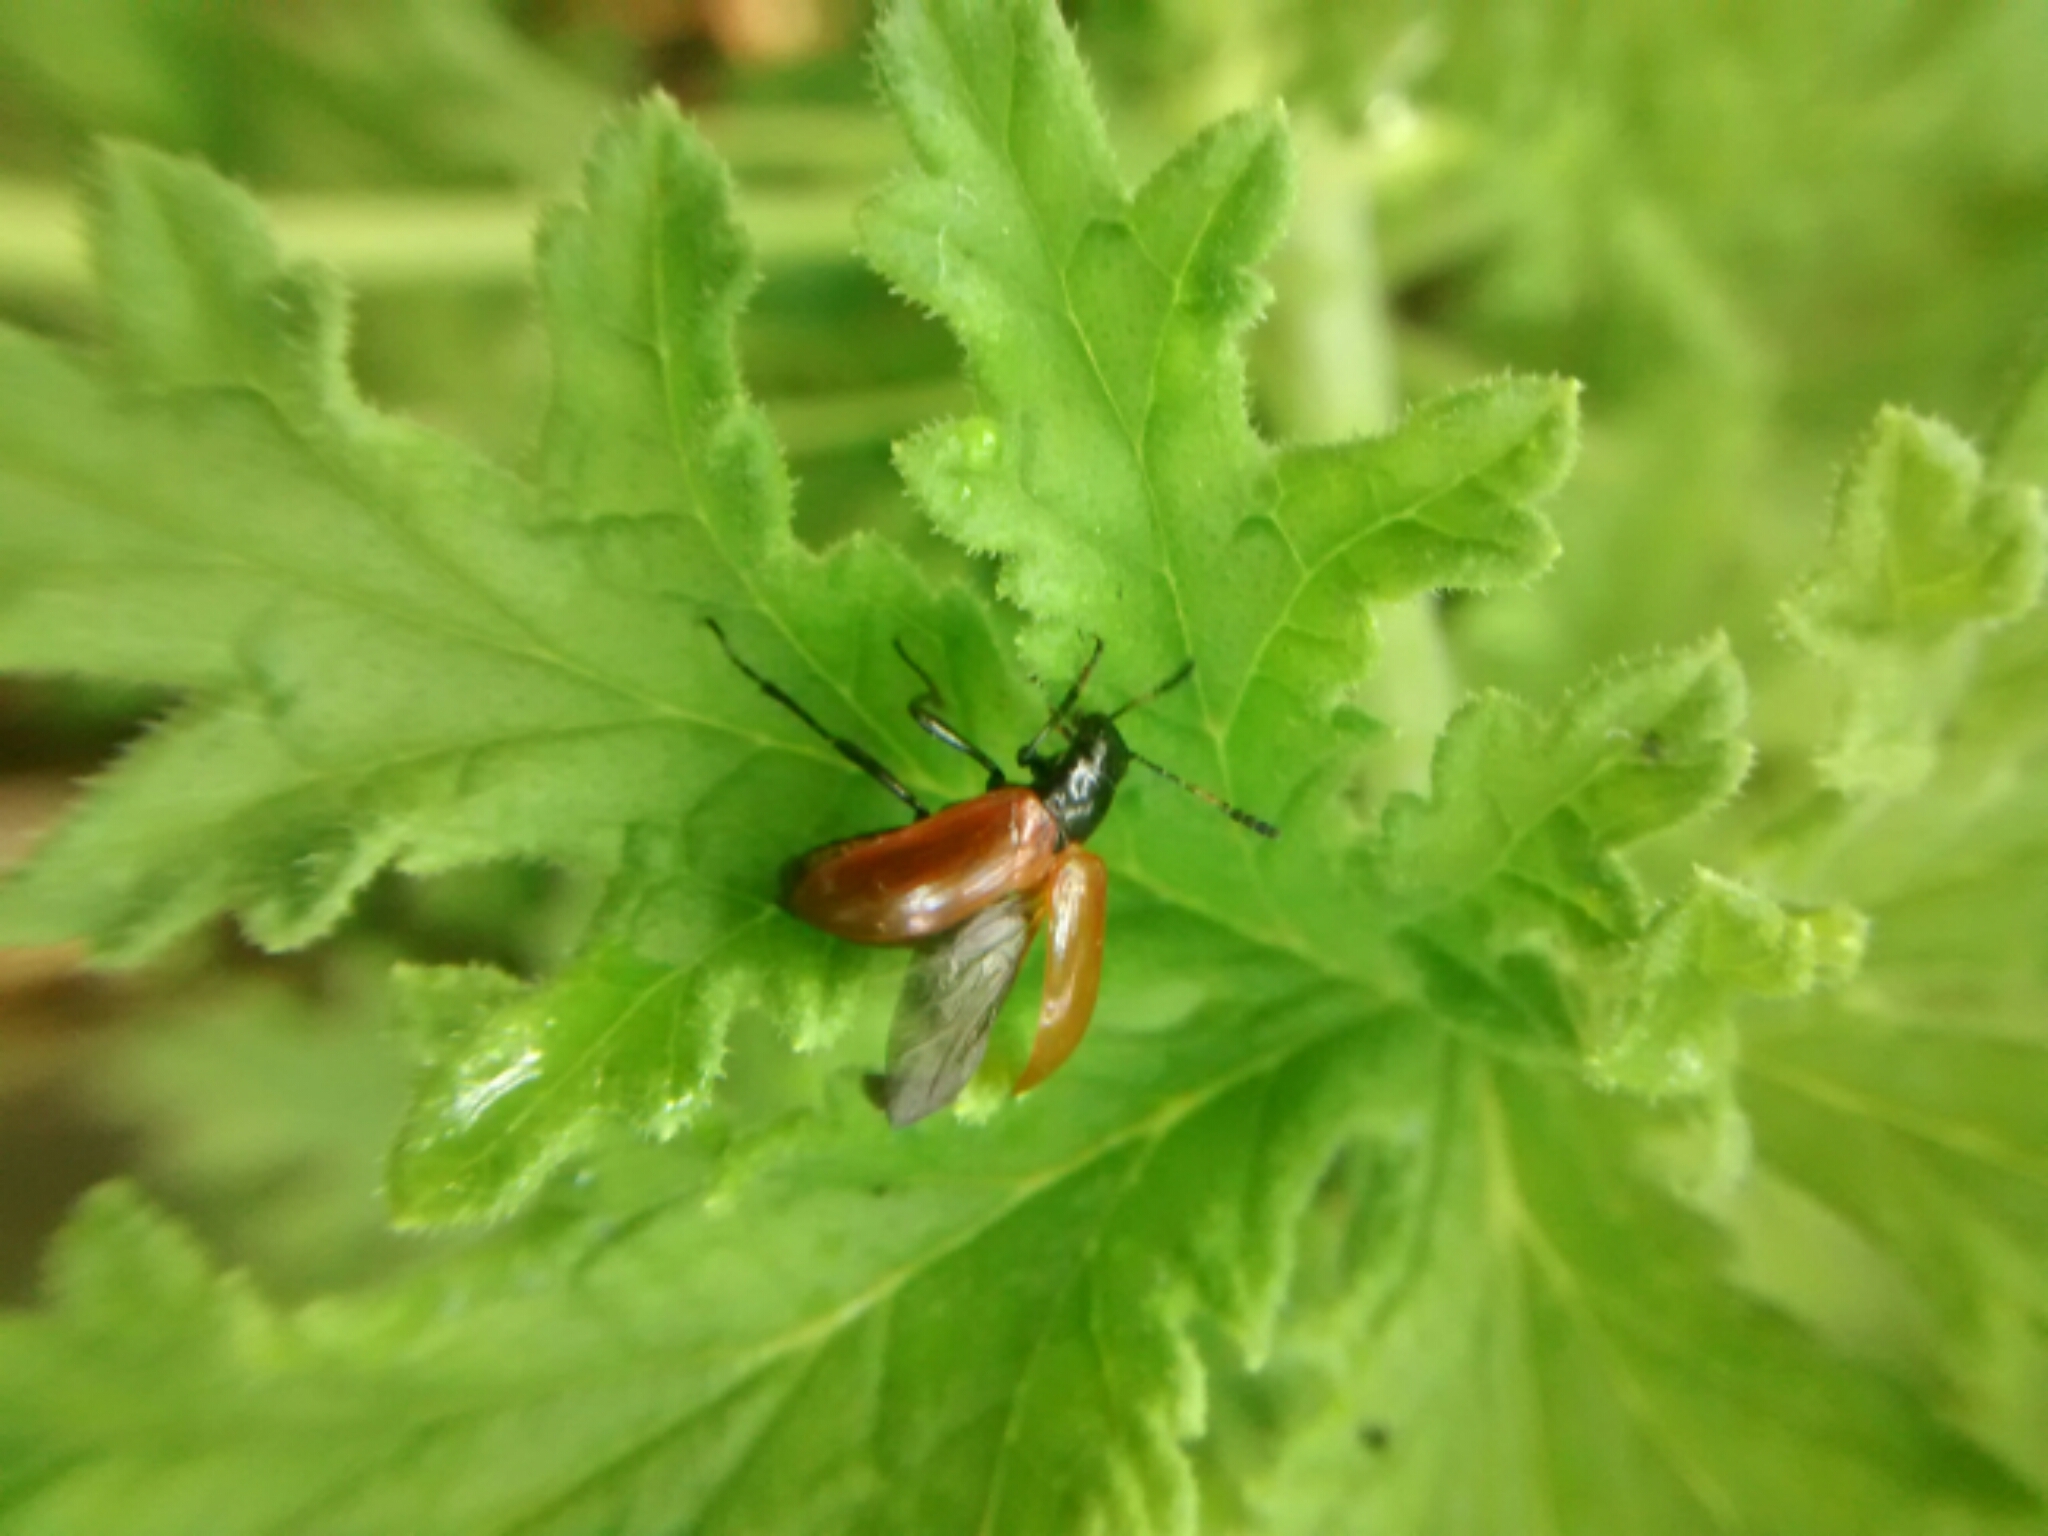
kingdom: Animalia
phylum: Arthropoda
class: Insecta
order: Coleoptera
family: Tenebrionidae
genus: Strongylium
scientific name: Strongylium hoepfneri
